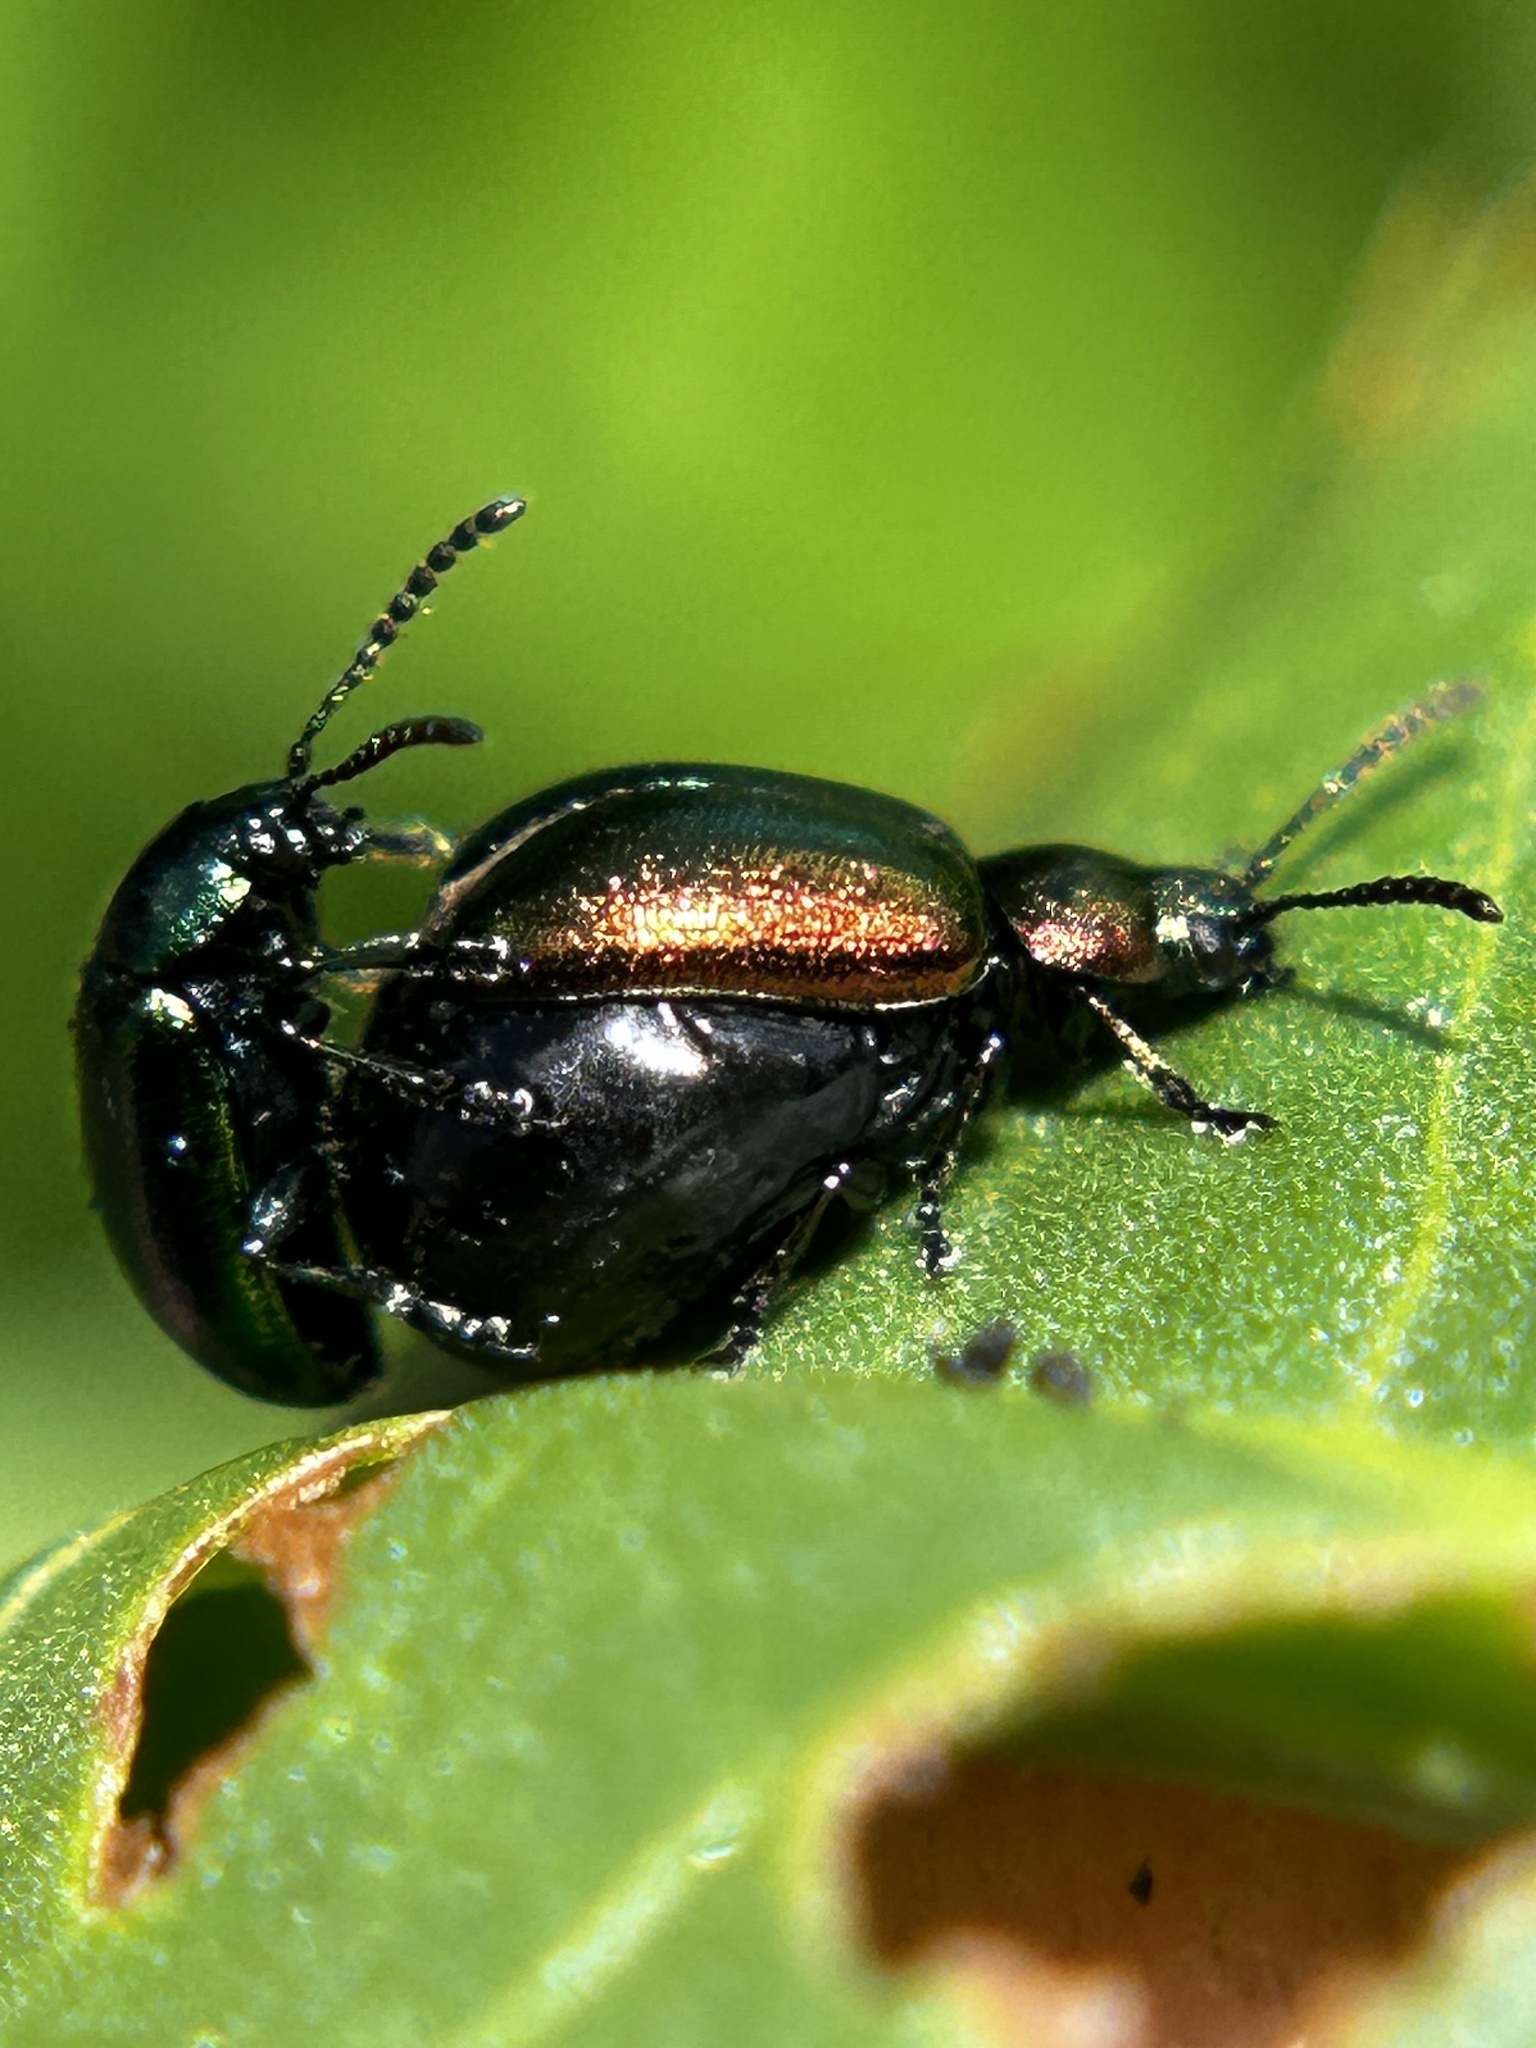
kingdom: Animalia
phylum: Arthropoda
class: Insecta
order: Coleoptera
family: Chrysomelidae
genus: Gastrophysa
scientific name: Gastrophysa cyanea
